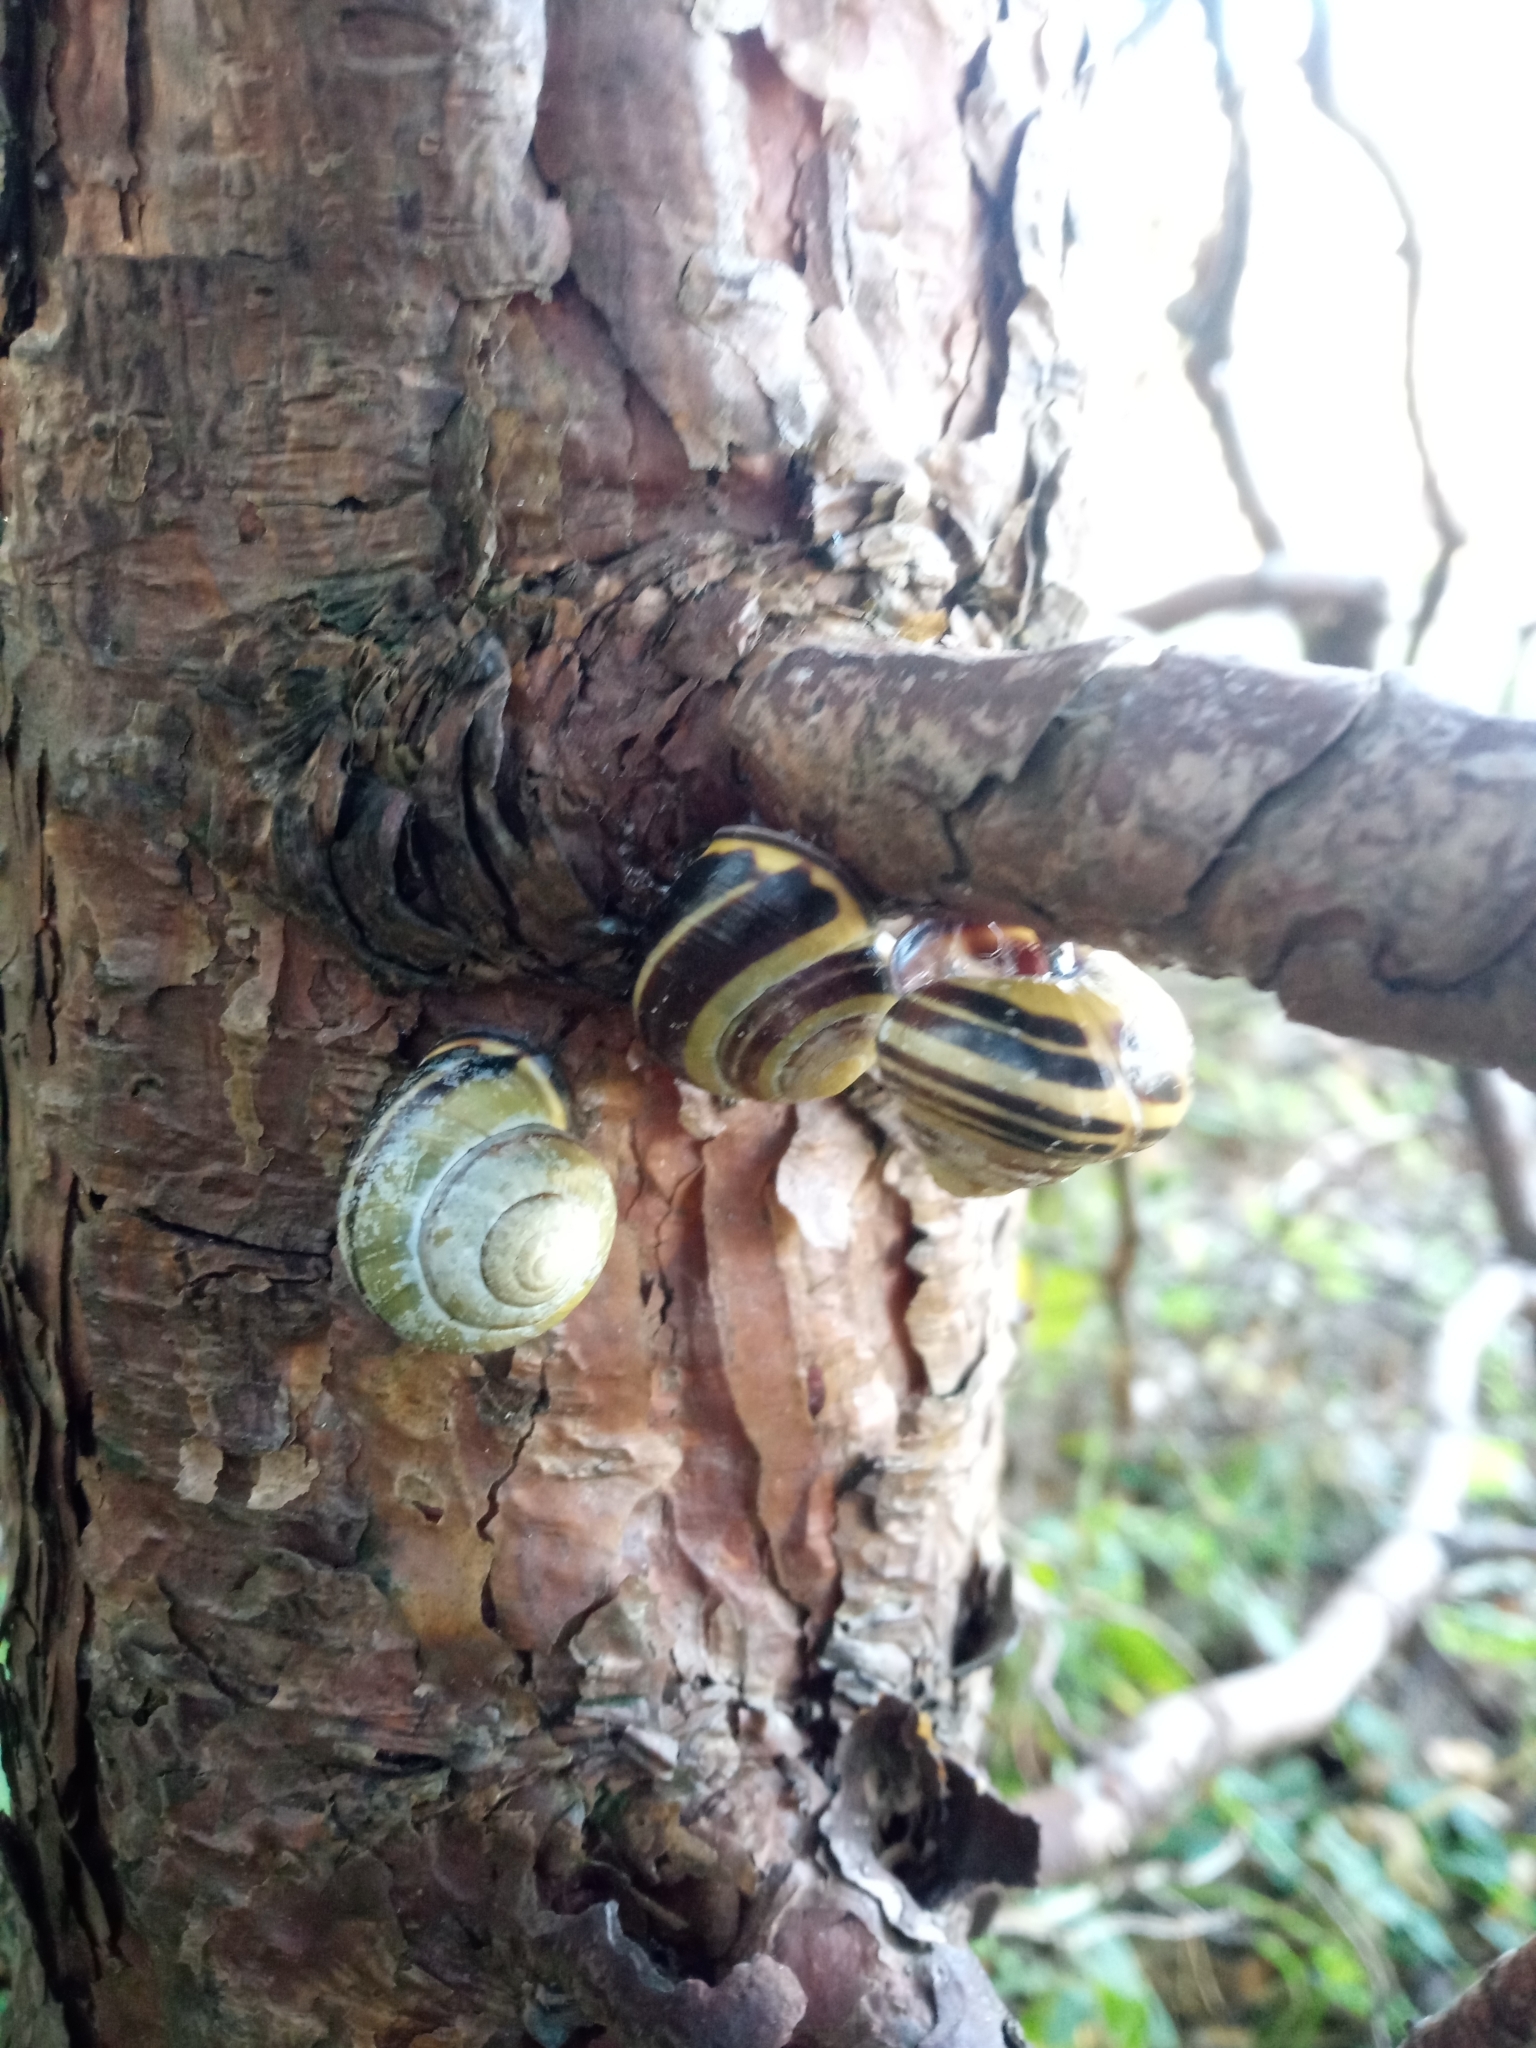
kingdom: Animalia
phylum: Mollusca
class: Gastropoda
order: Stylommatophora
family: Helicidae
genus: Cepaea
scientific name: Cepaea nemoralis
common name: Grovesnail
